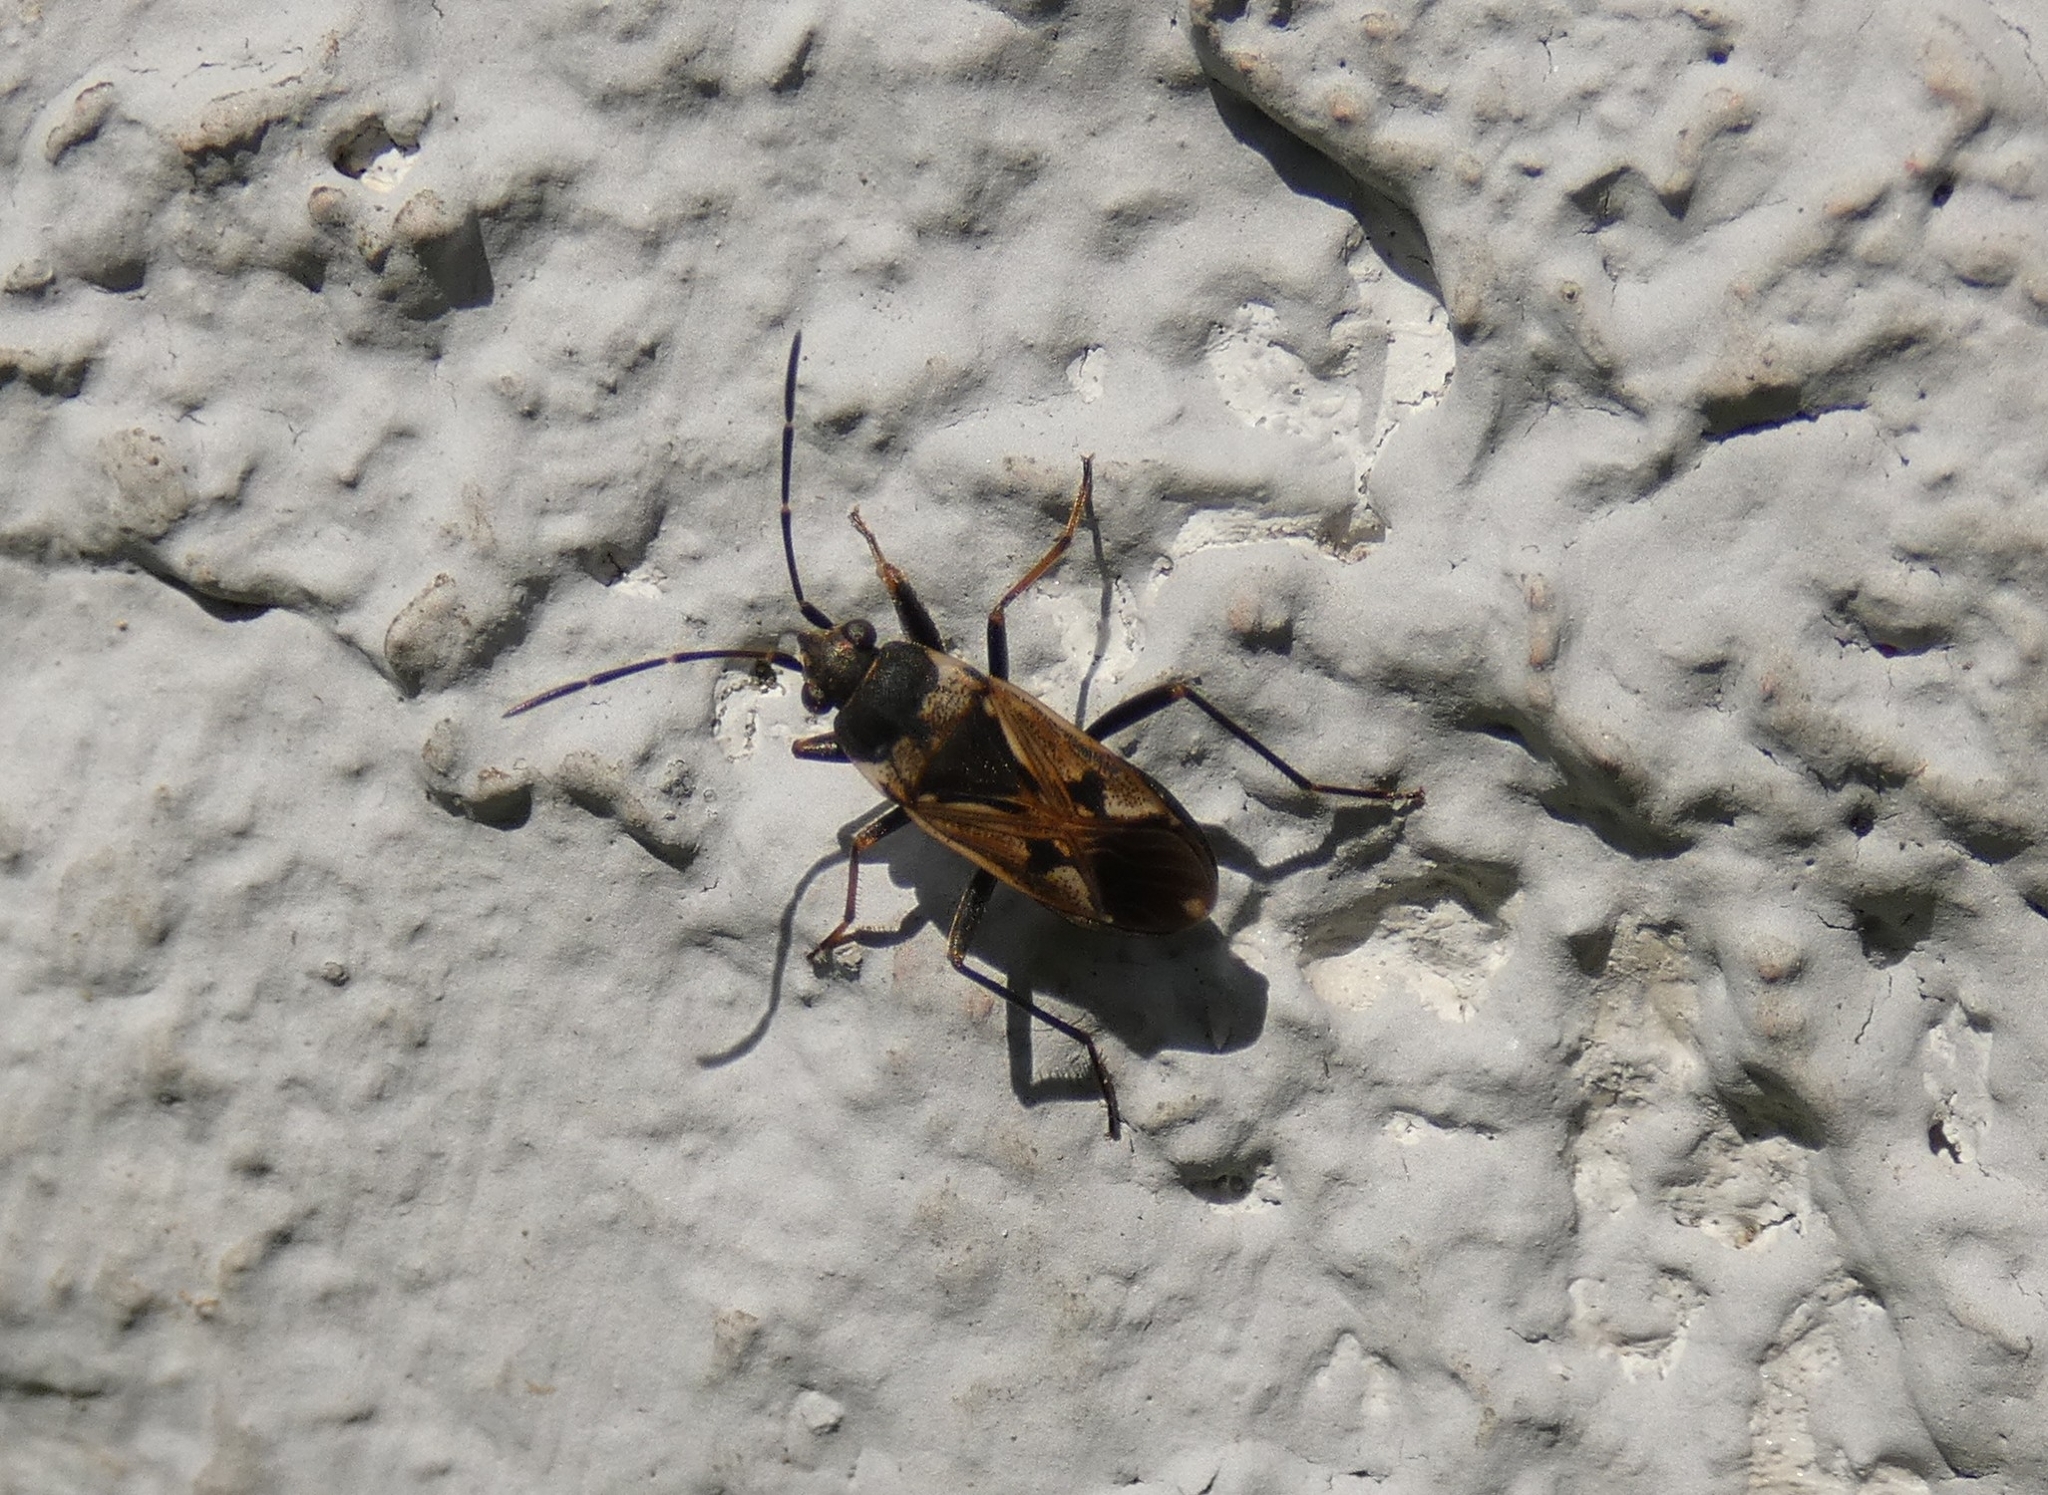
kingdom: Animalia
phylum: Arthropoda
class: Insecta
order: Hemiptera
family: Rhyparochromidae
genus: Rhyparochromus
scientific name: Rhyparochromus vulgaris
